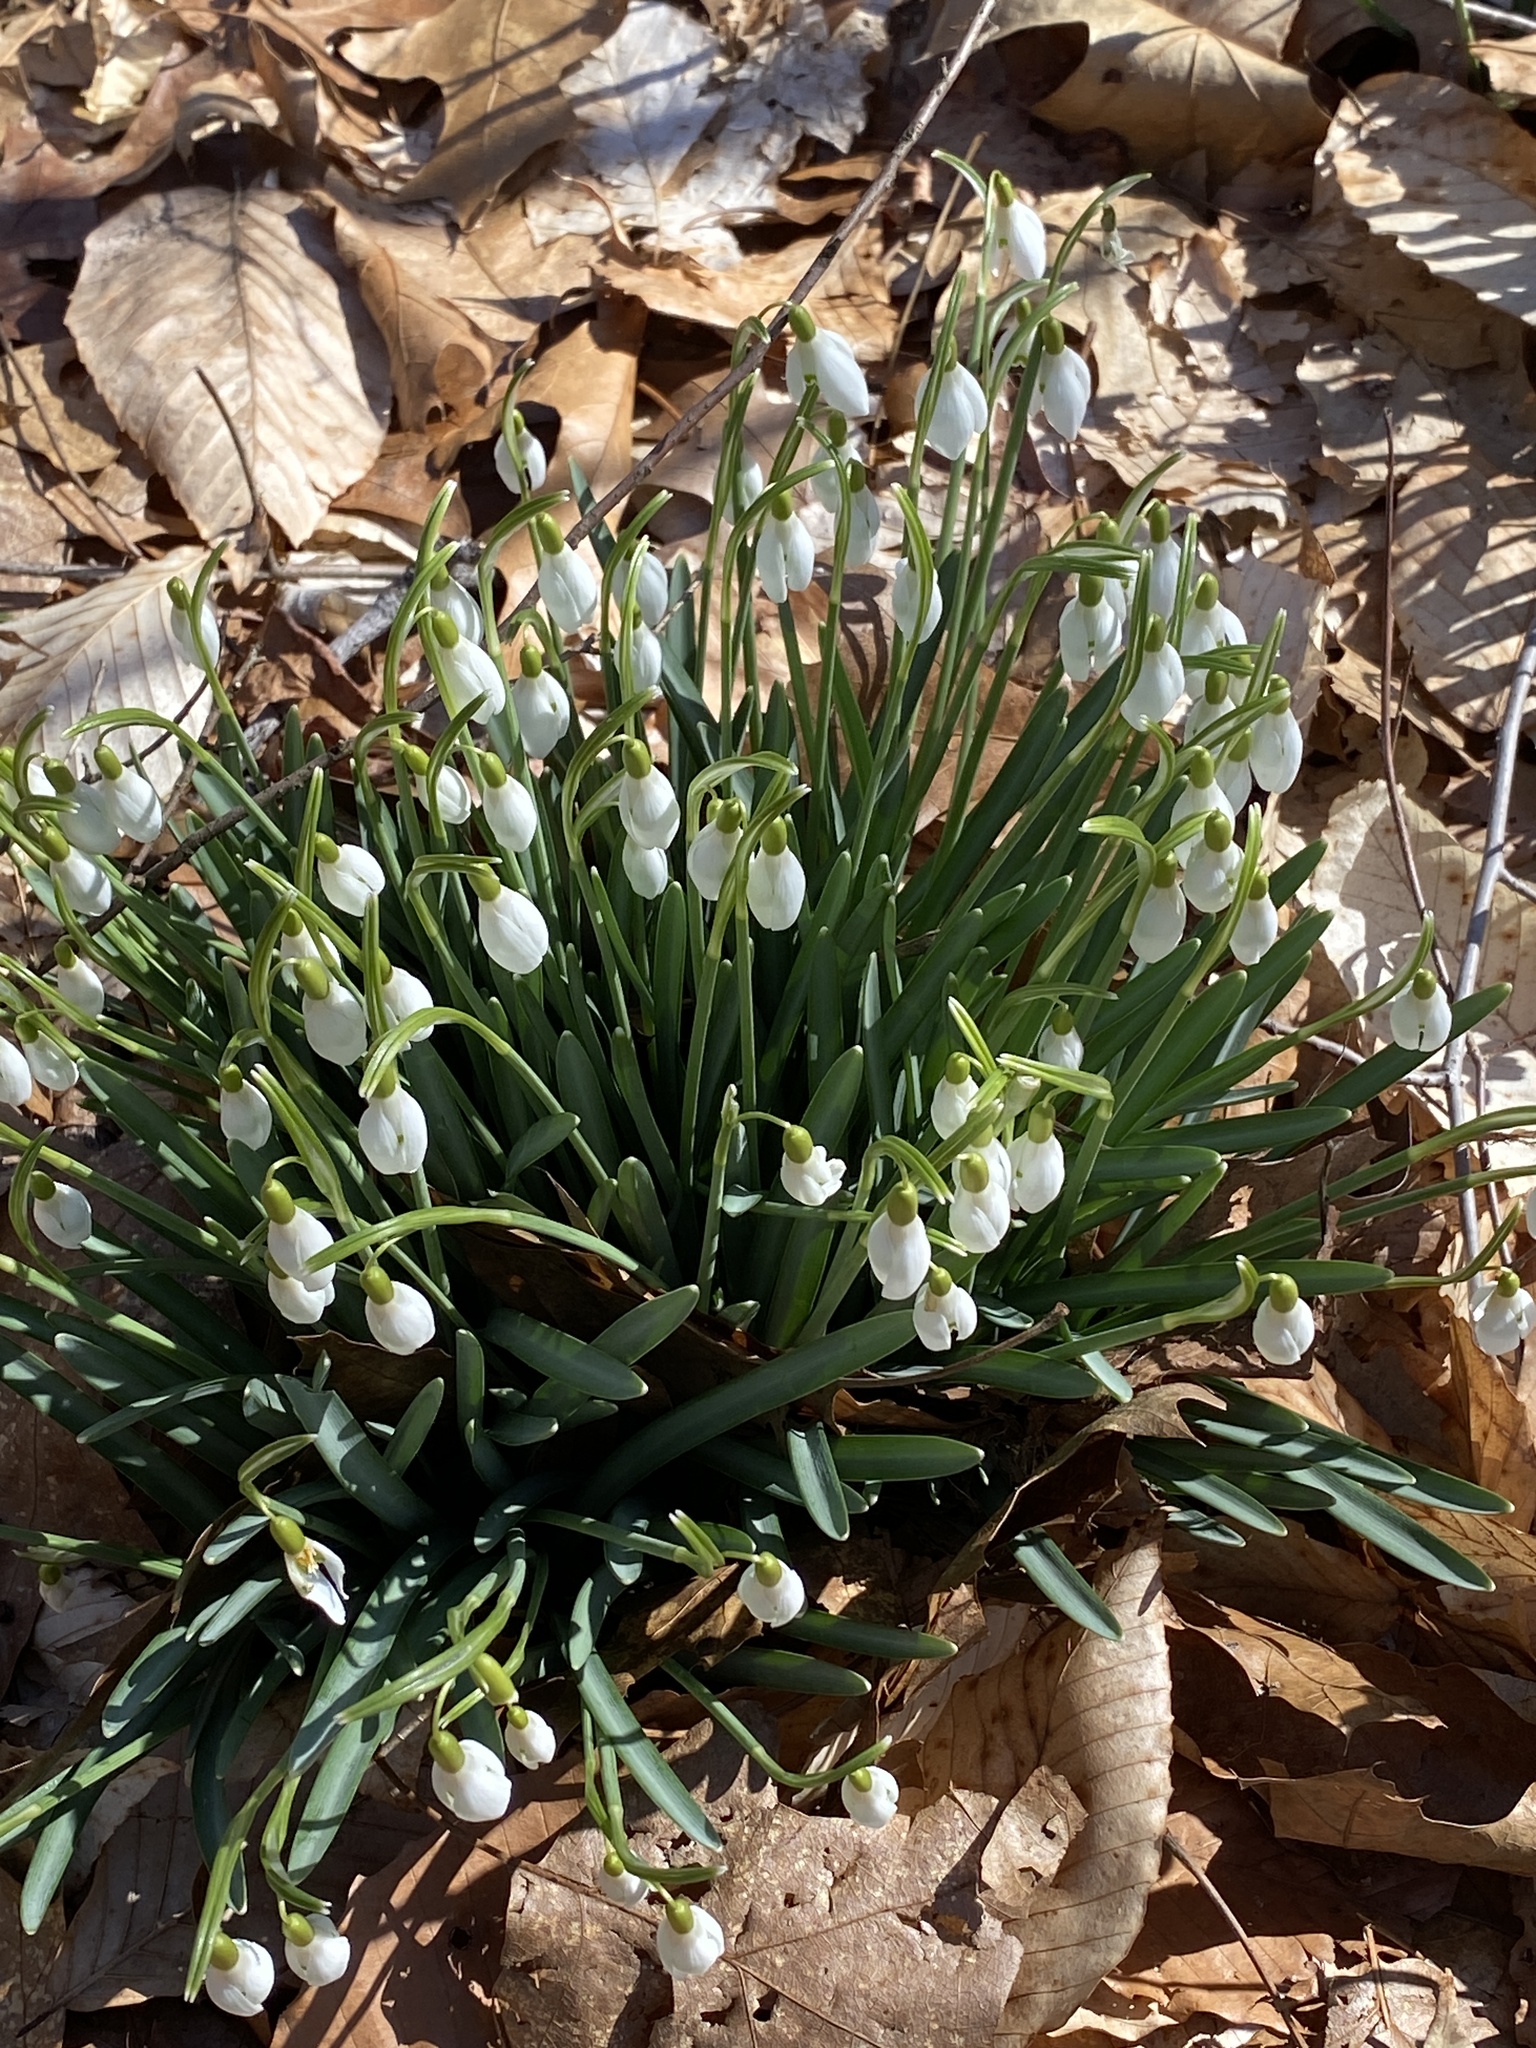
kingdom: Plantae
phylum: Tracheophyta
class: Liliopsida
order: Asparagales
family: Amaryllidaceae
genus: Galanthus
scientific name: Galanthus nivalis
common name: Snowdrop
